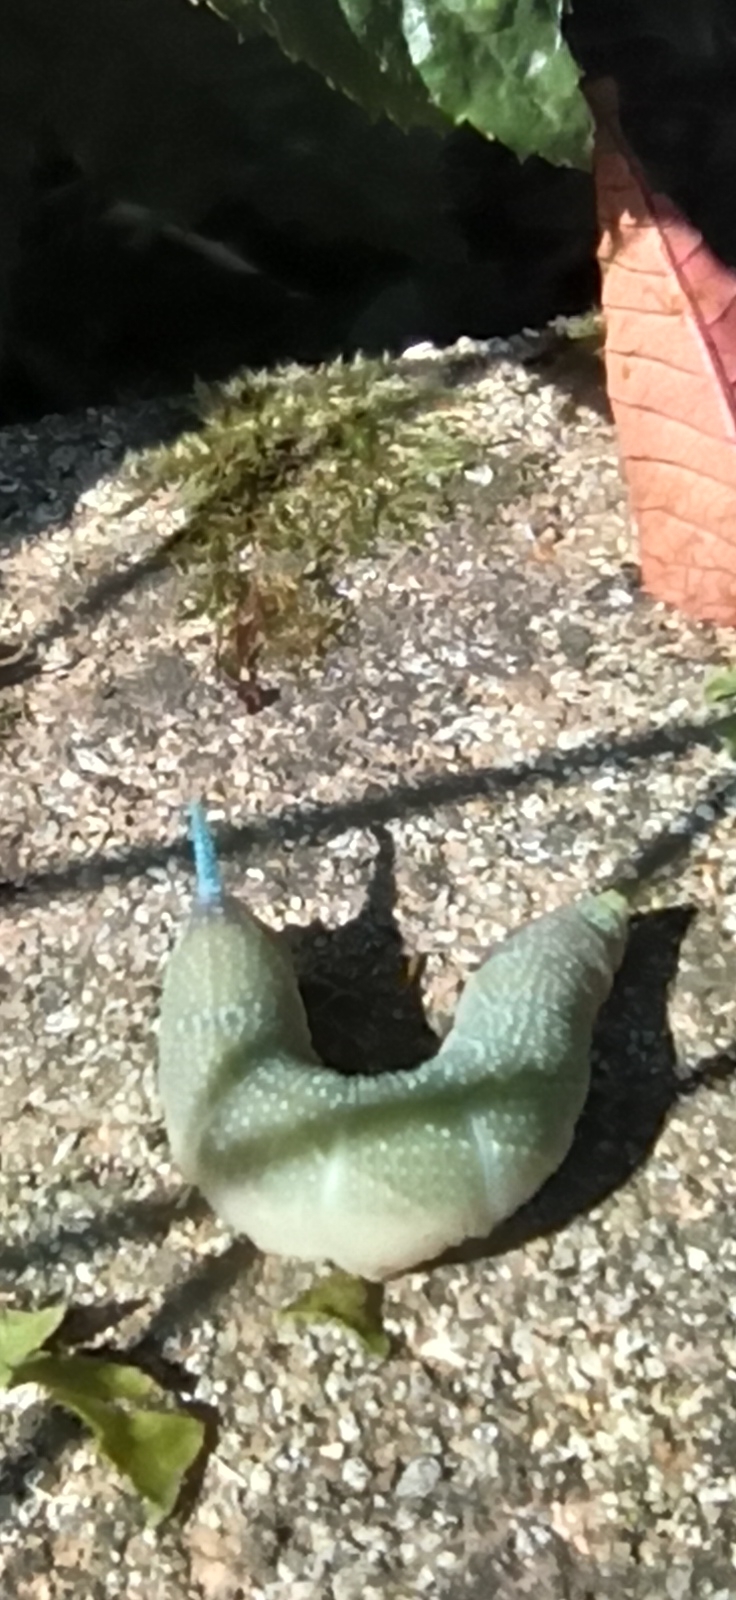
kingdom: Animalia
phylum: Arthropoda
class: Insecta
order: Lepidoptera
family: Sphingidae
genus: Mimas
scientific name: Mimas tiliae
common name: Lime hawk-moth
